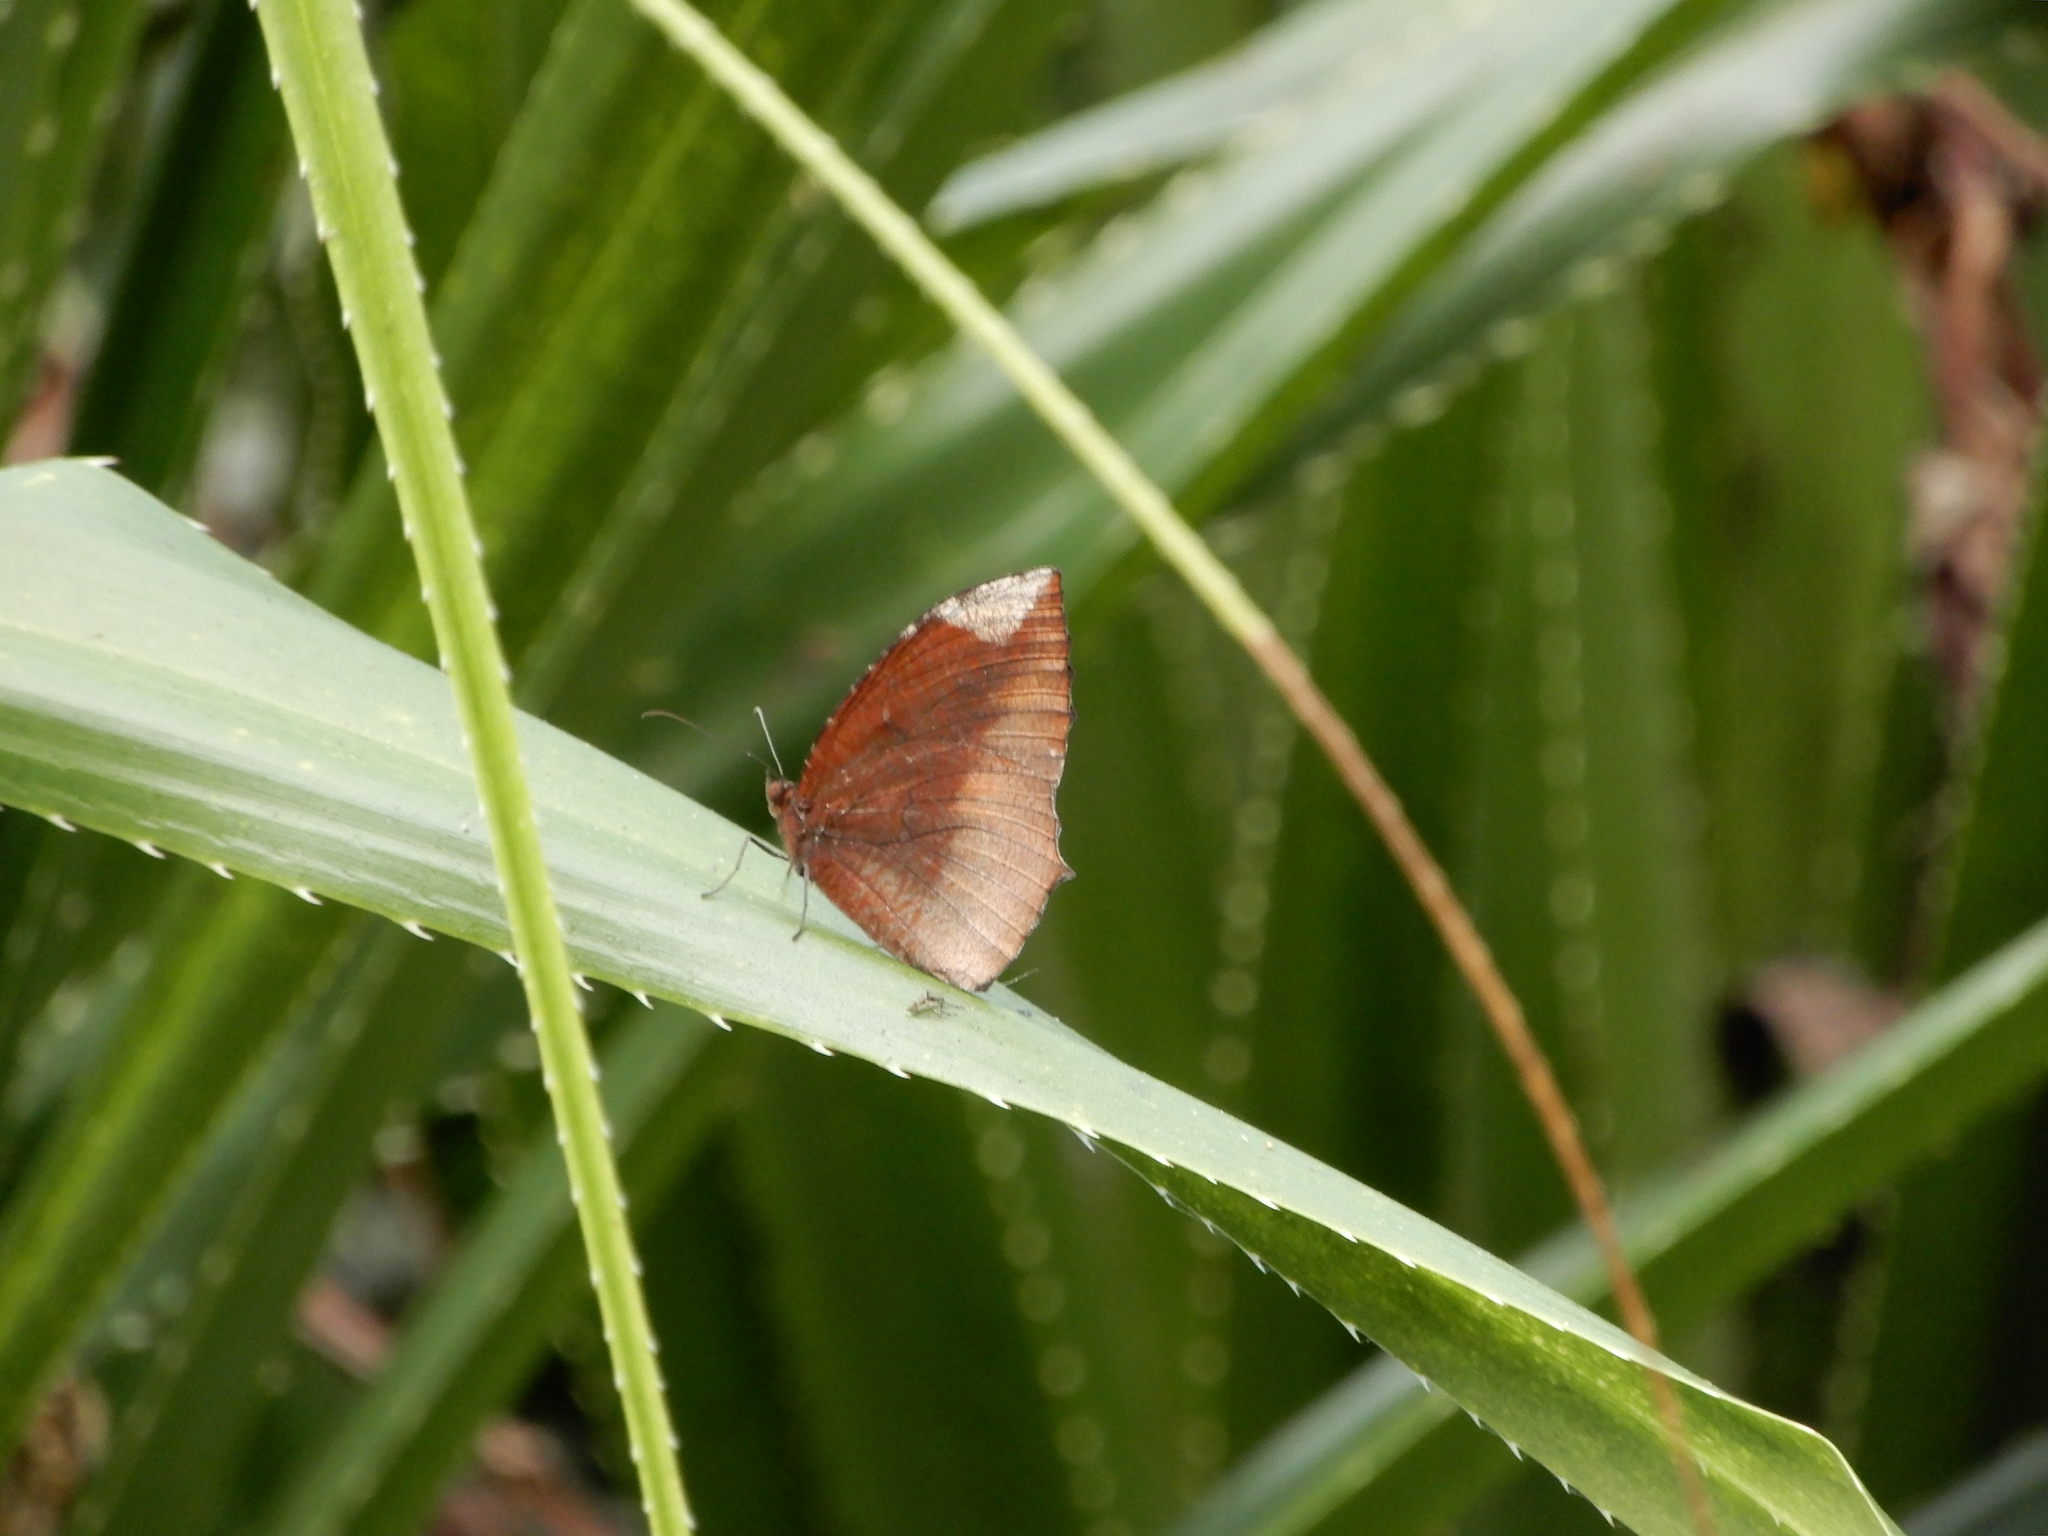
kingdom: Animalia
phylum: Arthropoda
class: Insecta
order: Lepidoptera
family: Nymphalidae
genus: Elymnias
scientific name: Elymnias hypermnestra
